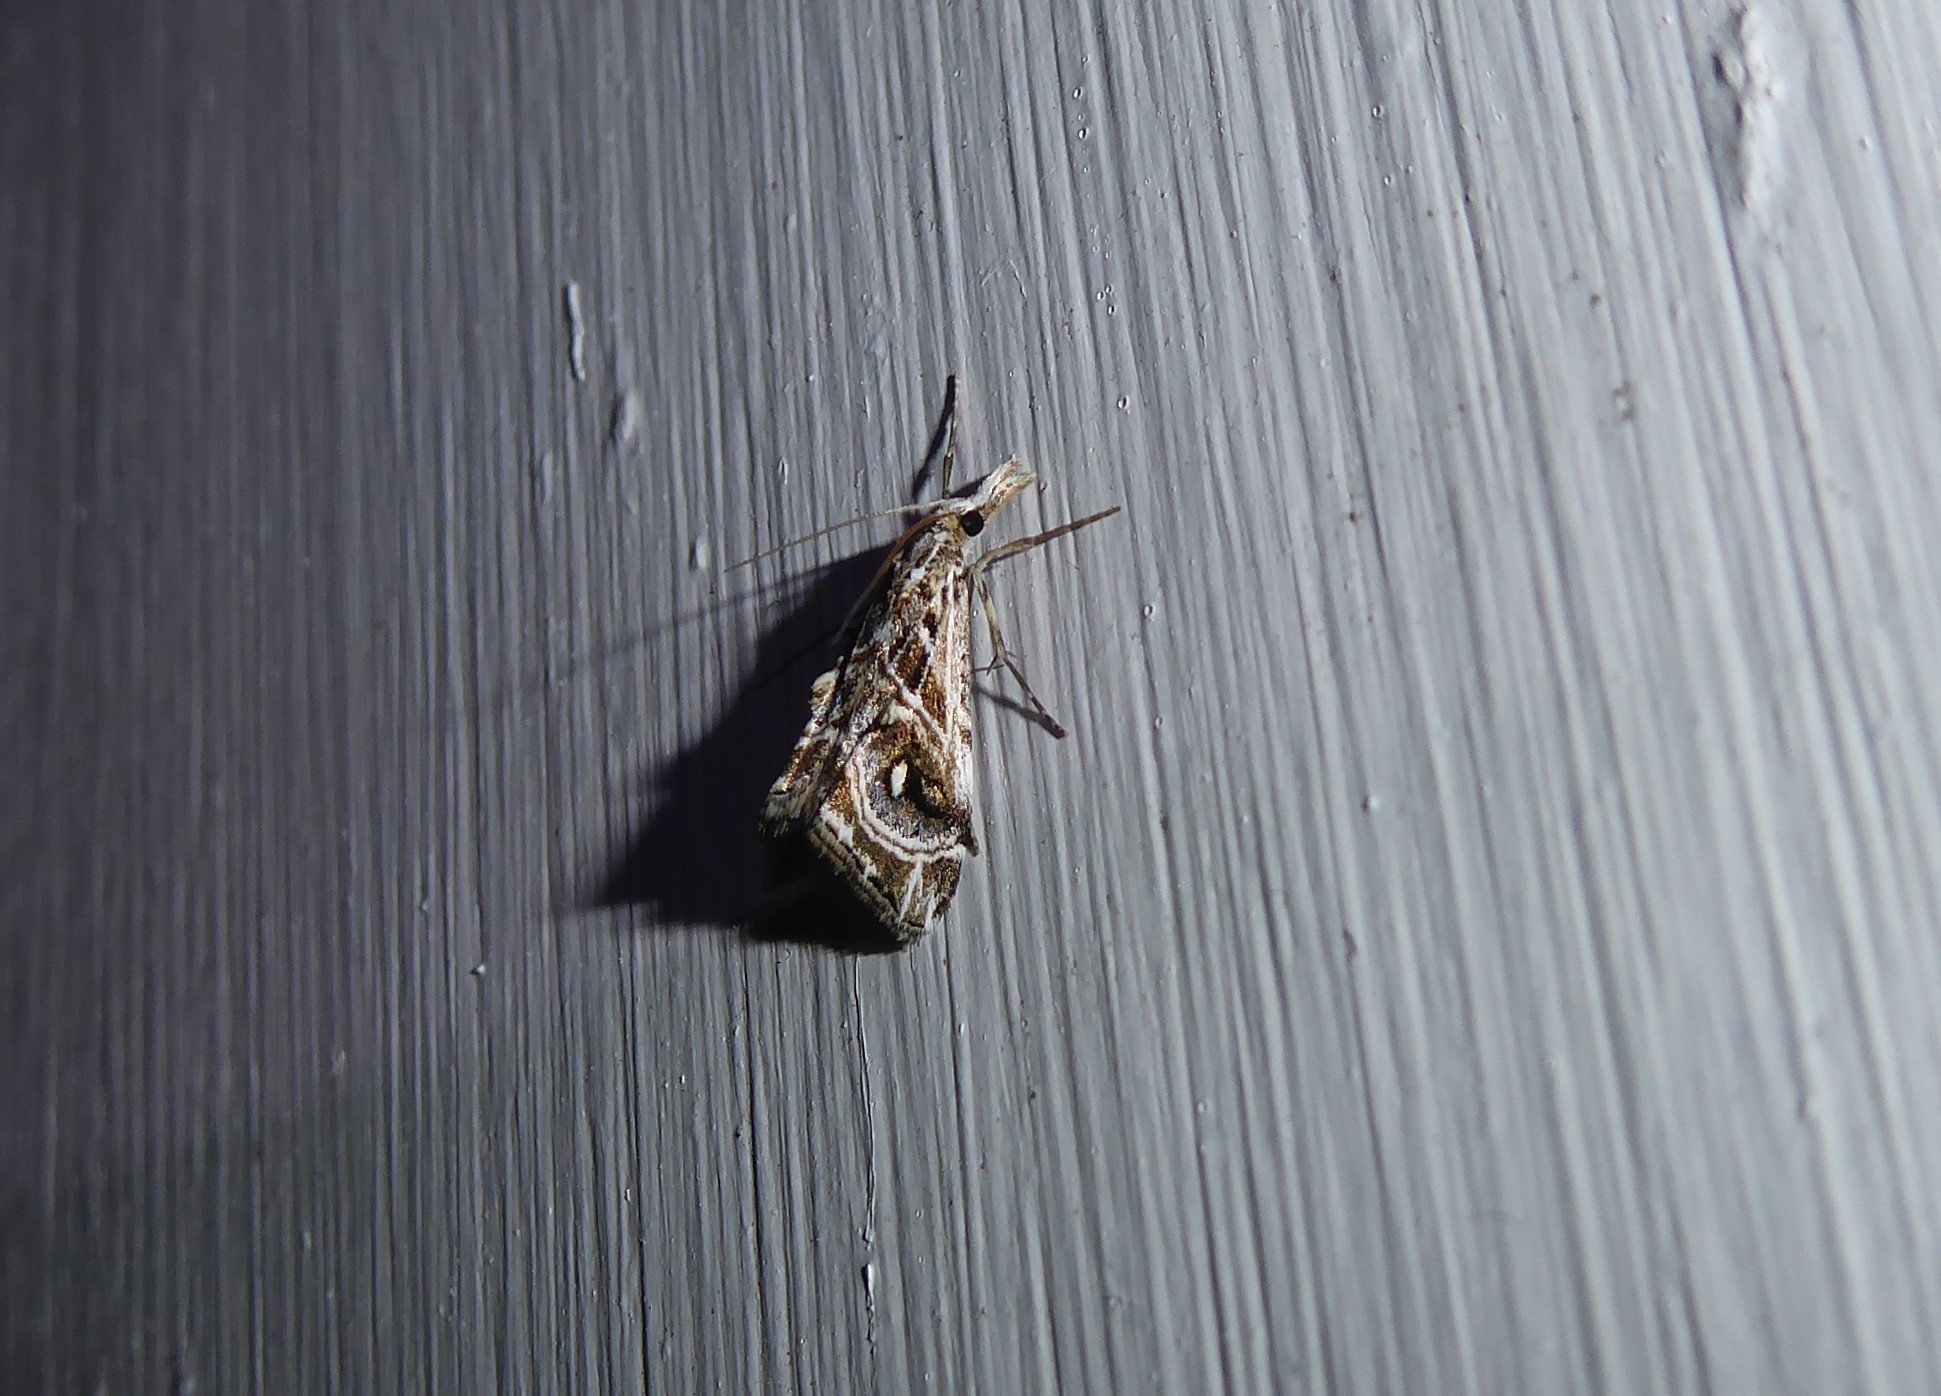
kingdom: Animalia
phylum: Arthropoda
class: Insecta
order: Lepidoptera
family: Crambidae
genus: Gadira
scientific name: Gadira acerella
